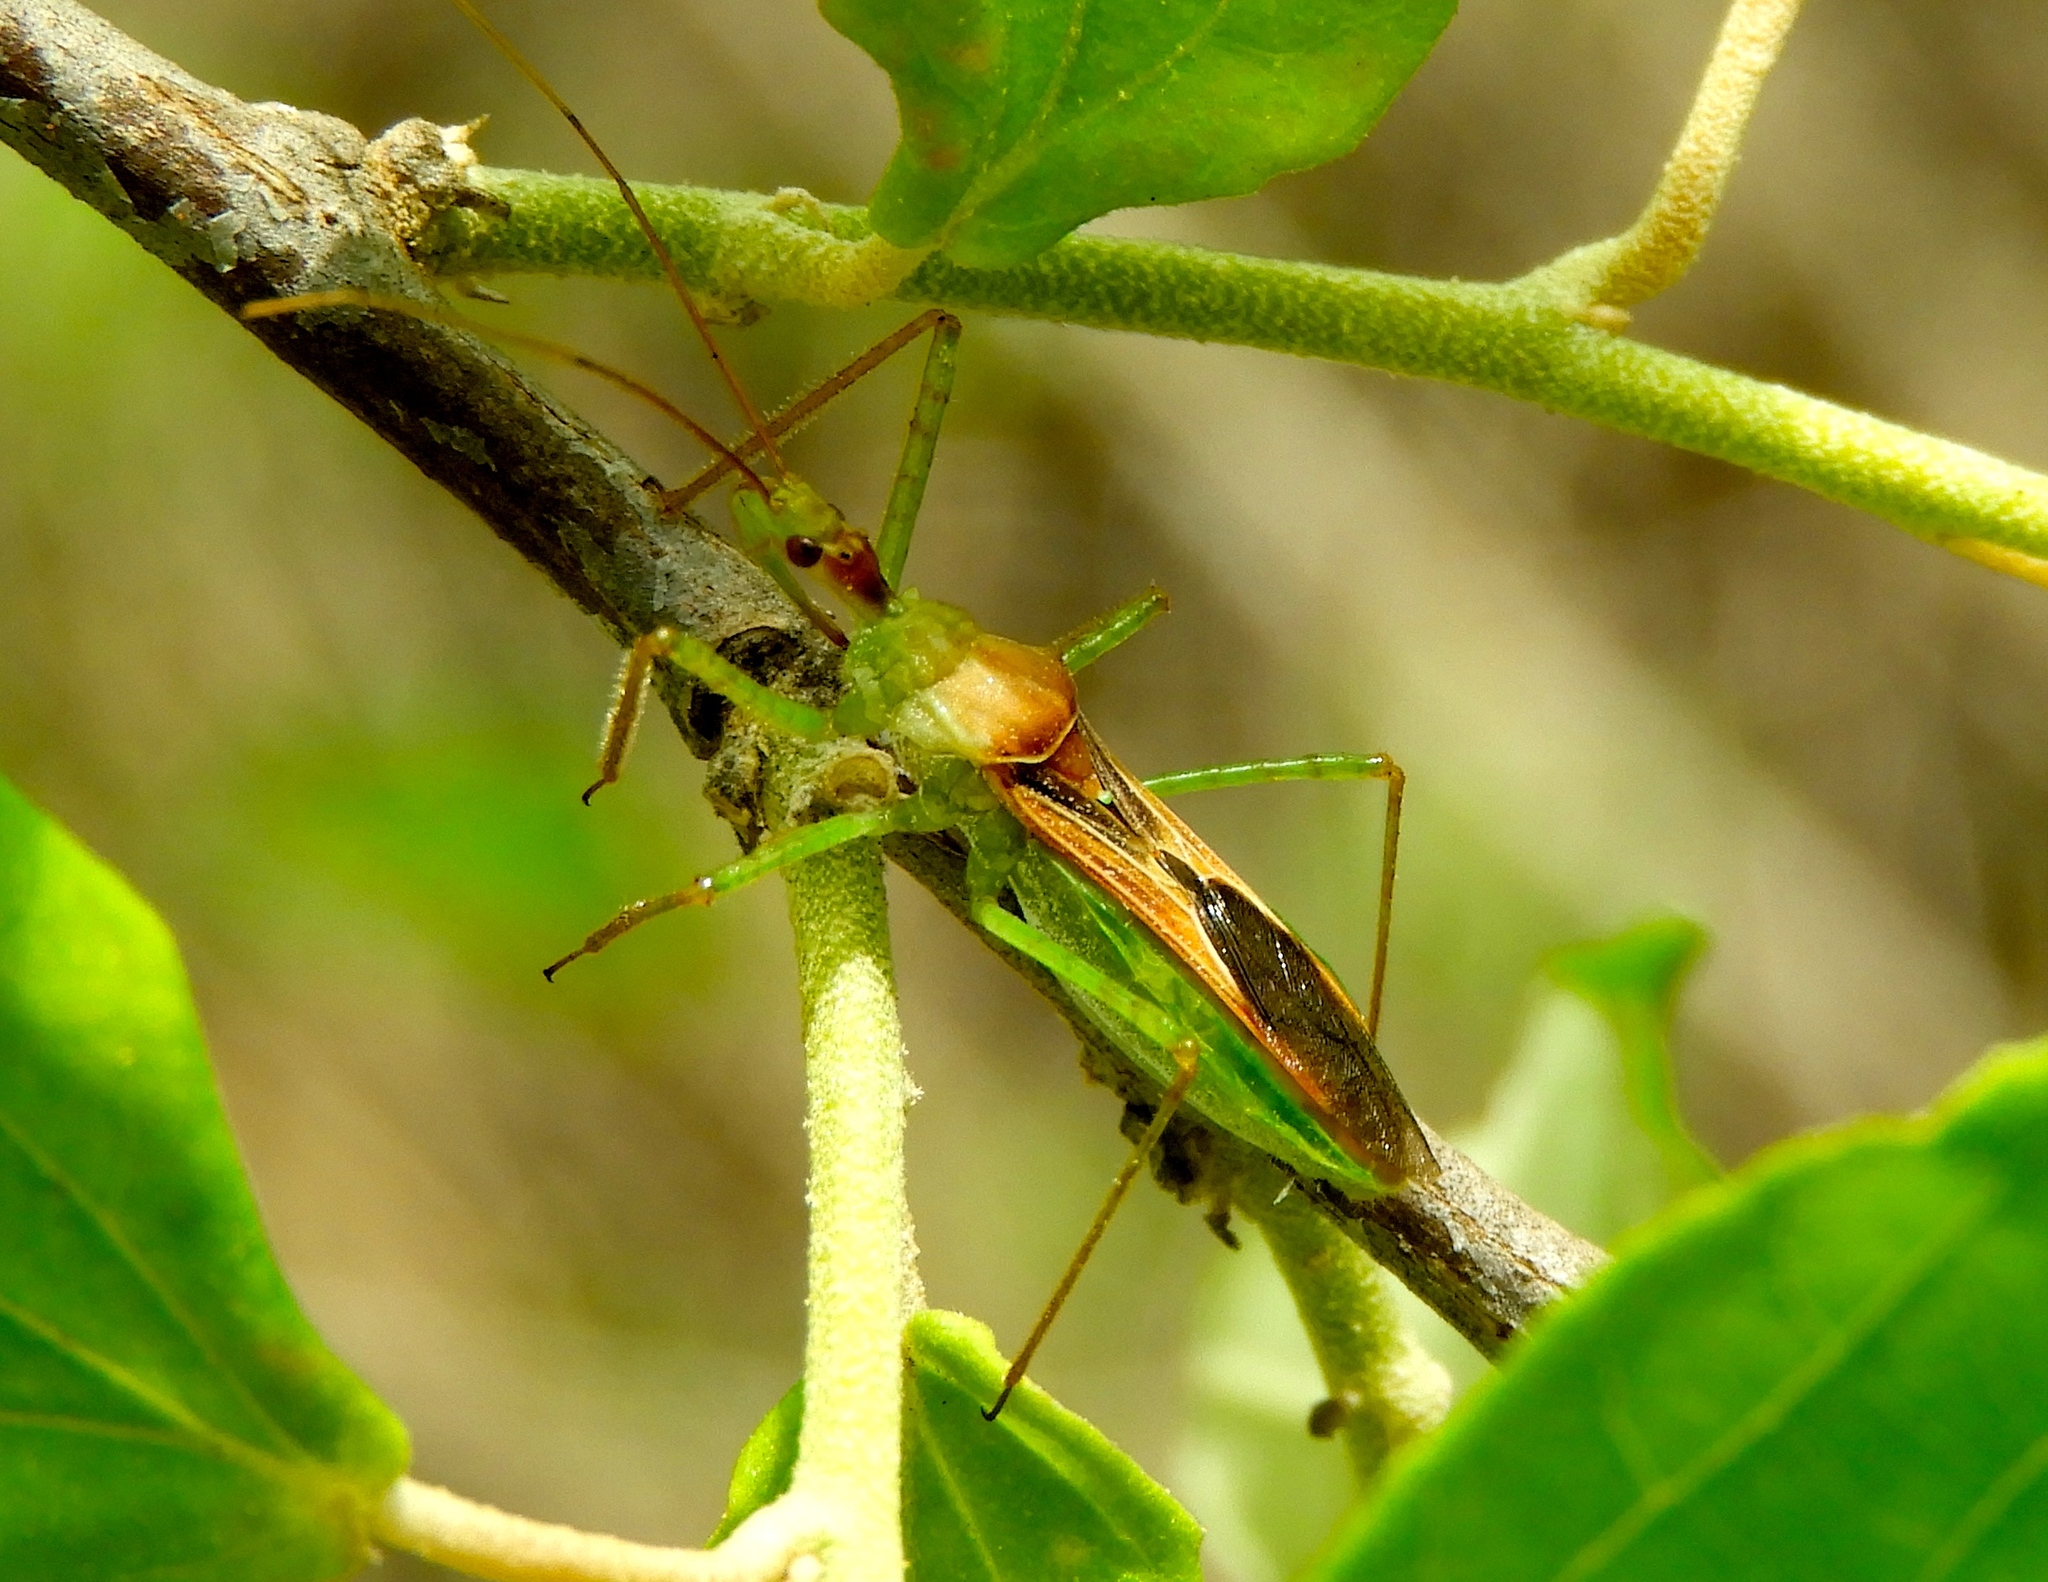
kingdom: Animalia
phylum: Arthropoda
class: Insecta
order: Hemiptera
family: Reduviidae
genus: Zelus
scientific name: Zelus
